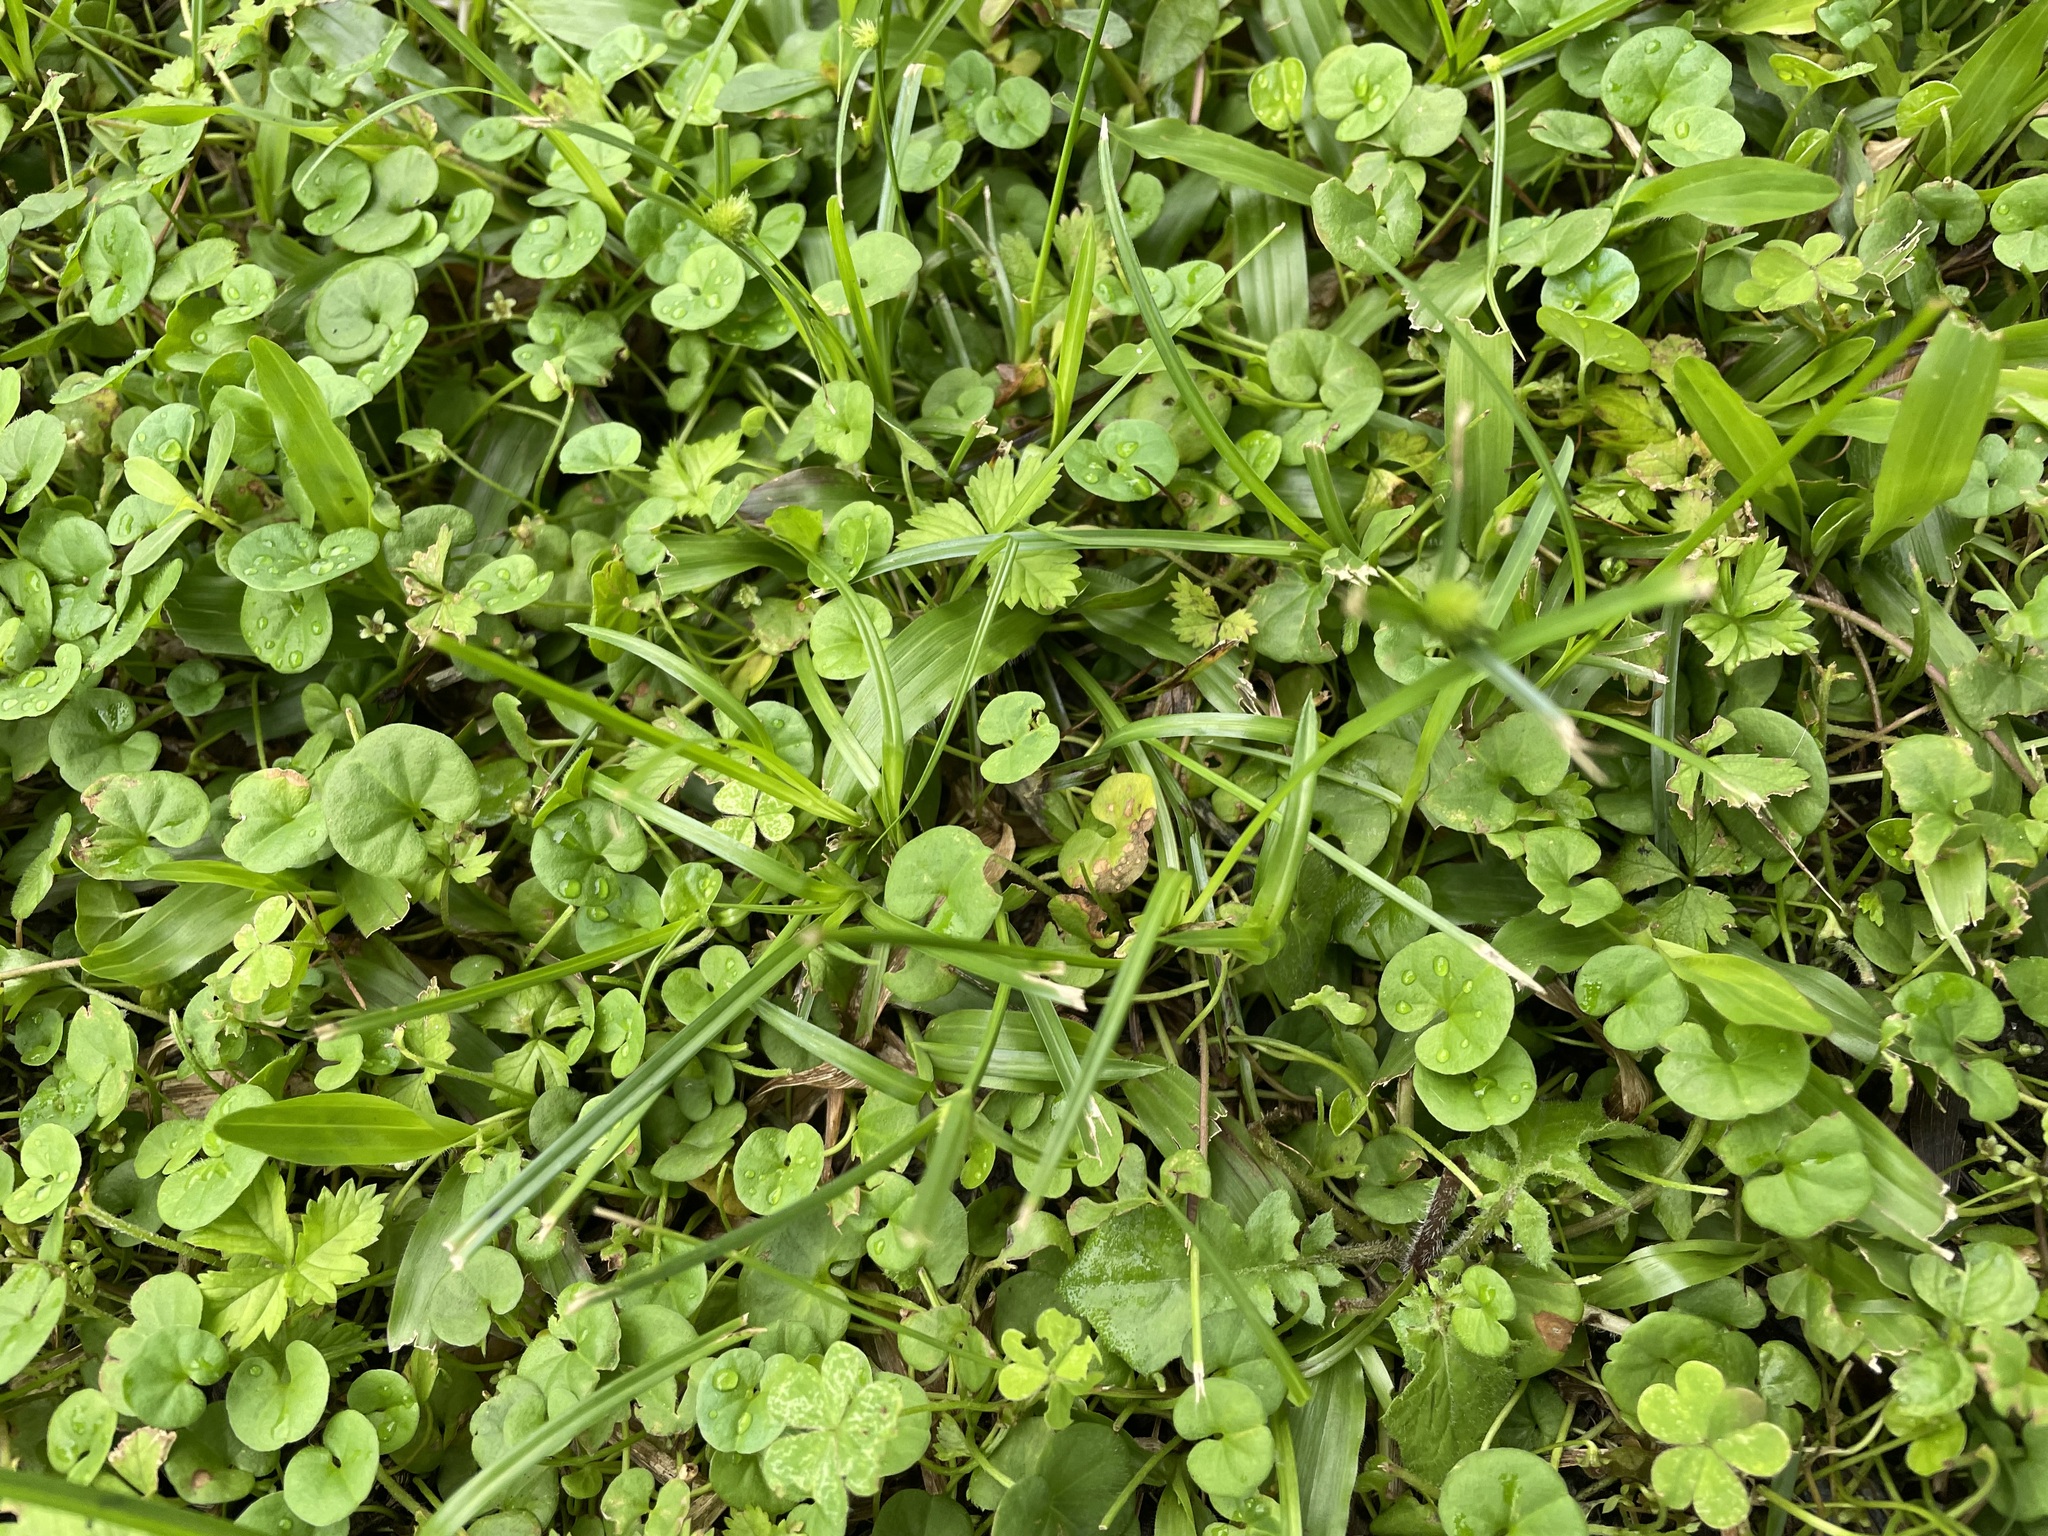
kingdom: Plantae
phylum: Tracheophyta
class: Magnoliopsida
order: Solanales
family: Convolvulaceae
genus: Dichondra
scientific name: Dichondra micrantha
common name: Kidneyweed
